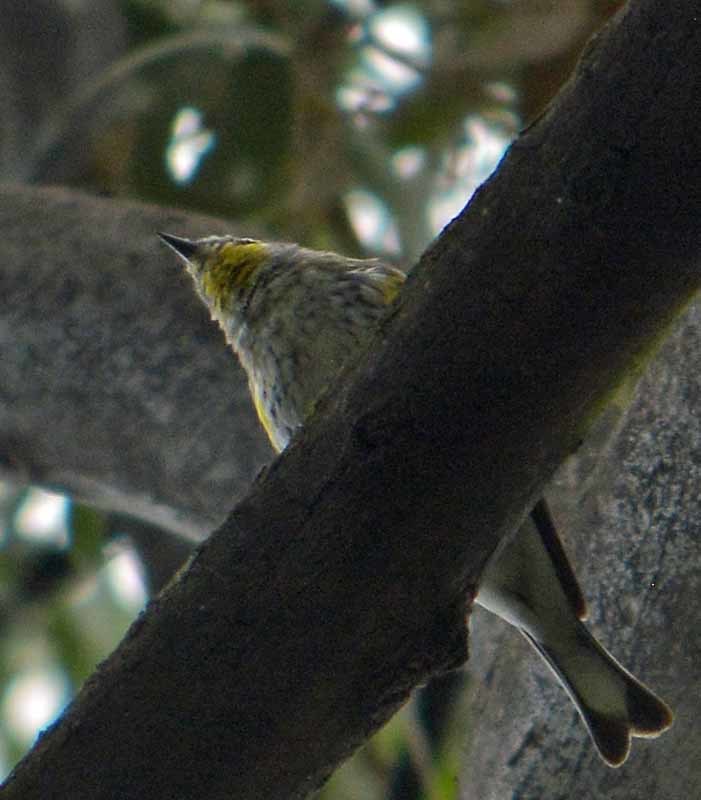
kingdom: Animalia
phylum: Chordata
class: Aves
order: Passeriformes
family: Parulidae
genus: Setophaga
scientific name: Setophaga coronata
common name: Myrtle warbler
